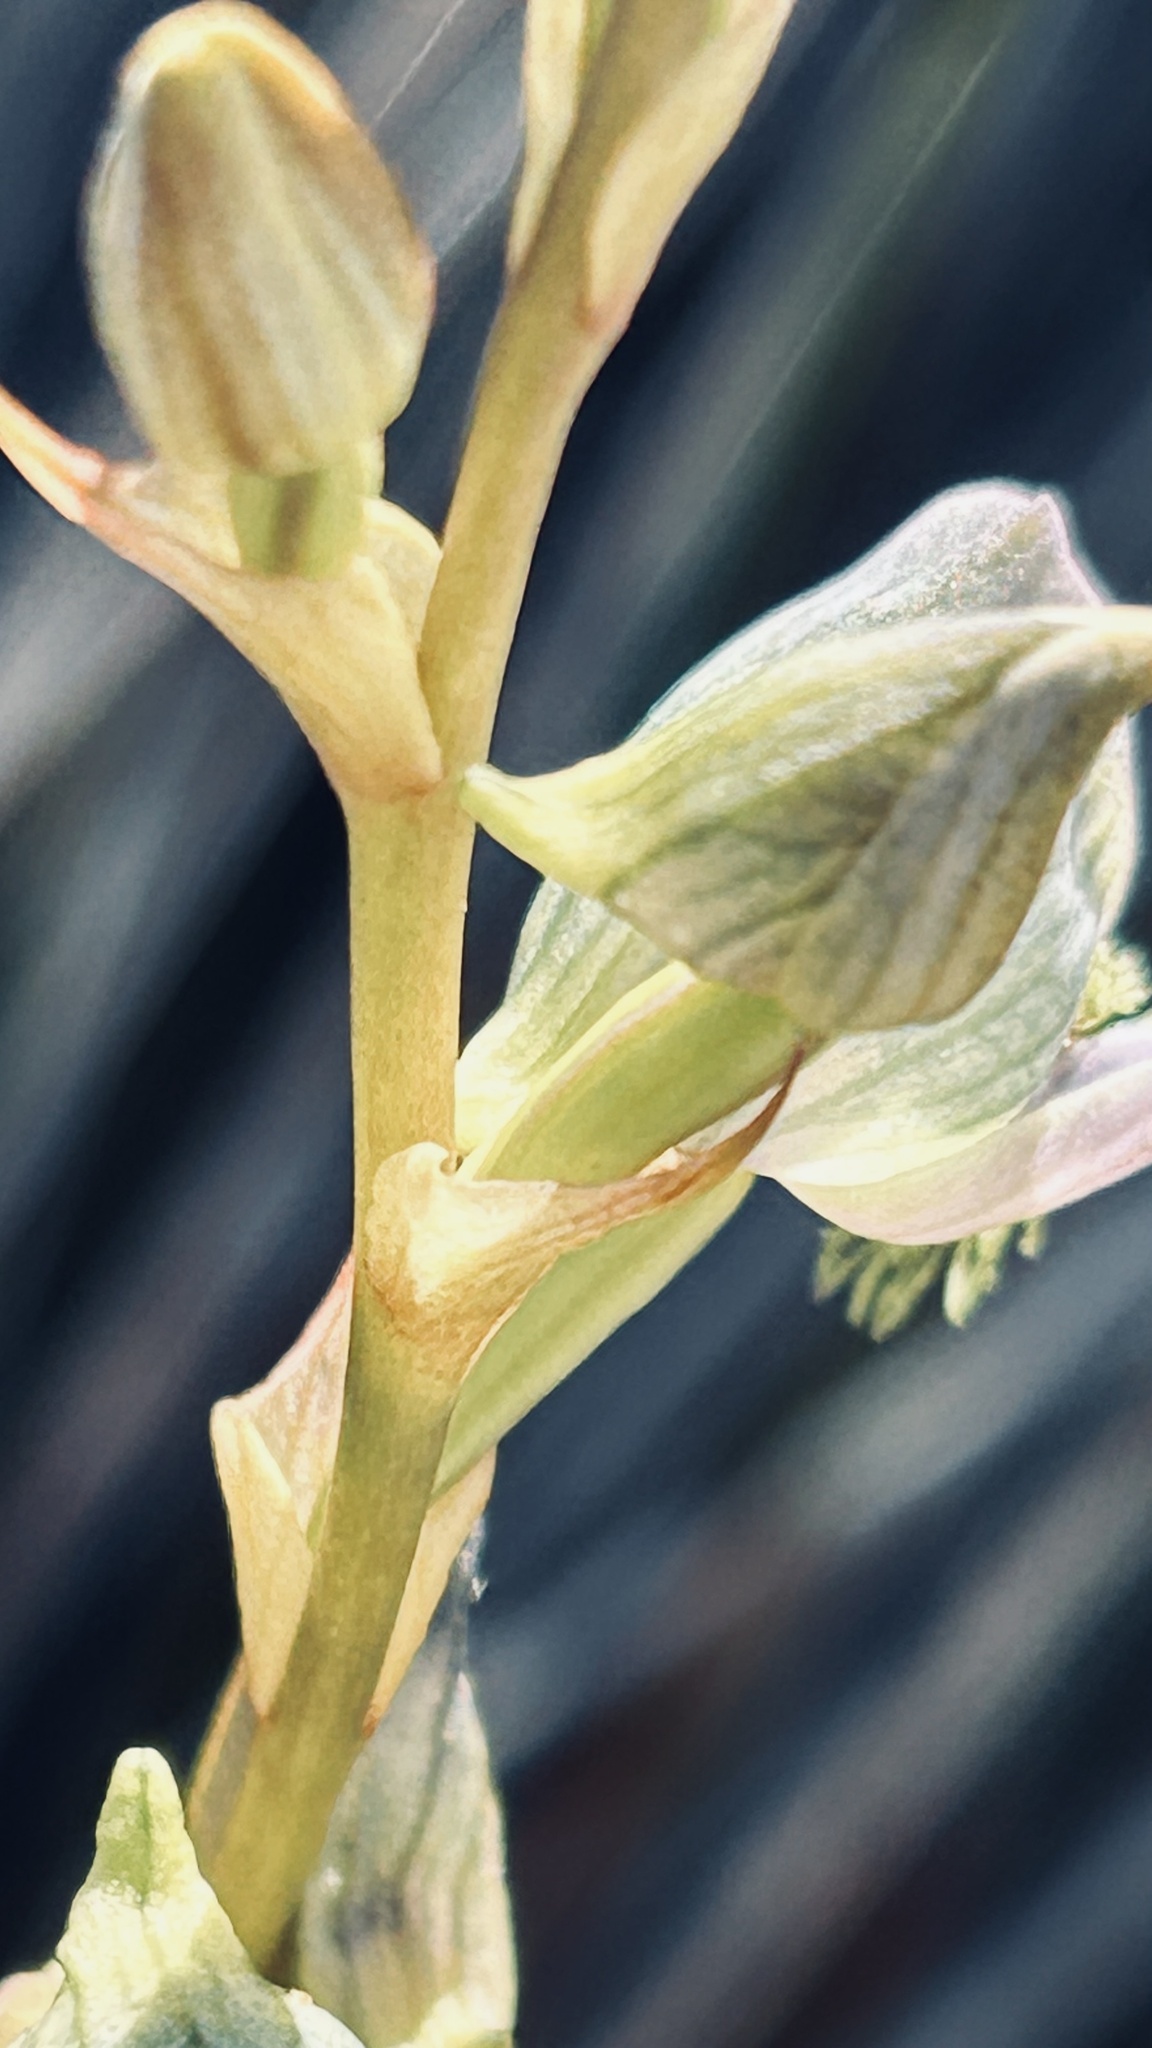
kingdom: Plantae
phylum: Tracheophyta
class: Liliopsida
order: Asparagales
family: Orchidaceae
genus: Disa
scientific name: Disa lugens
